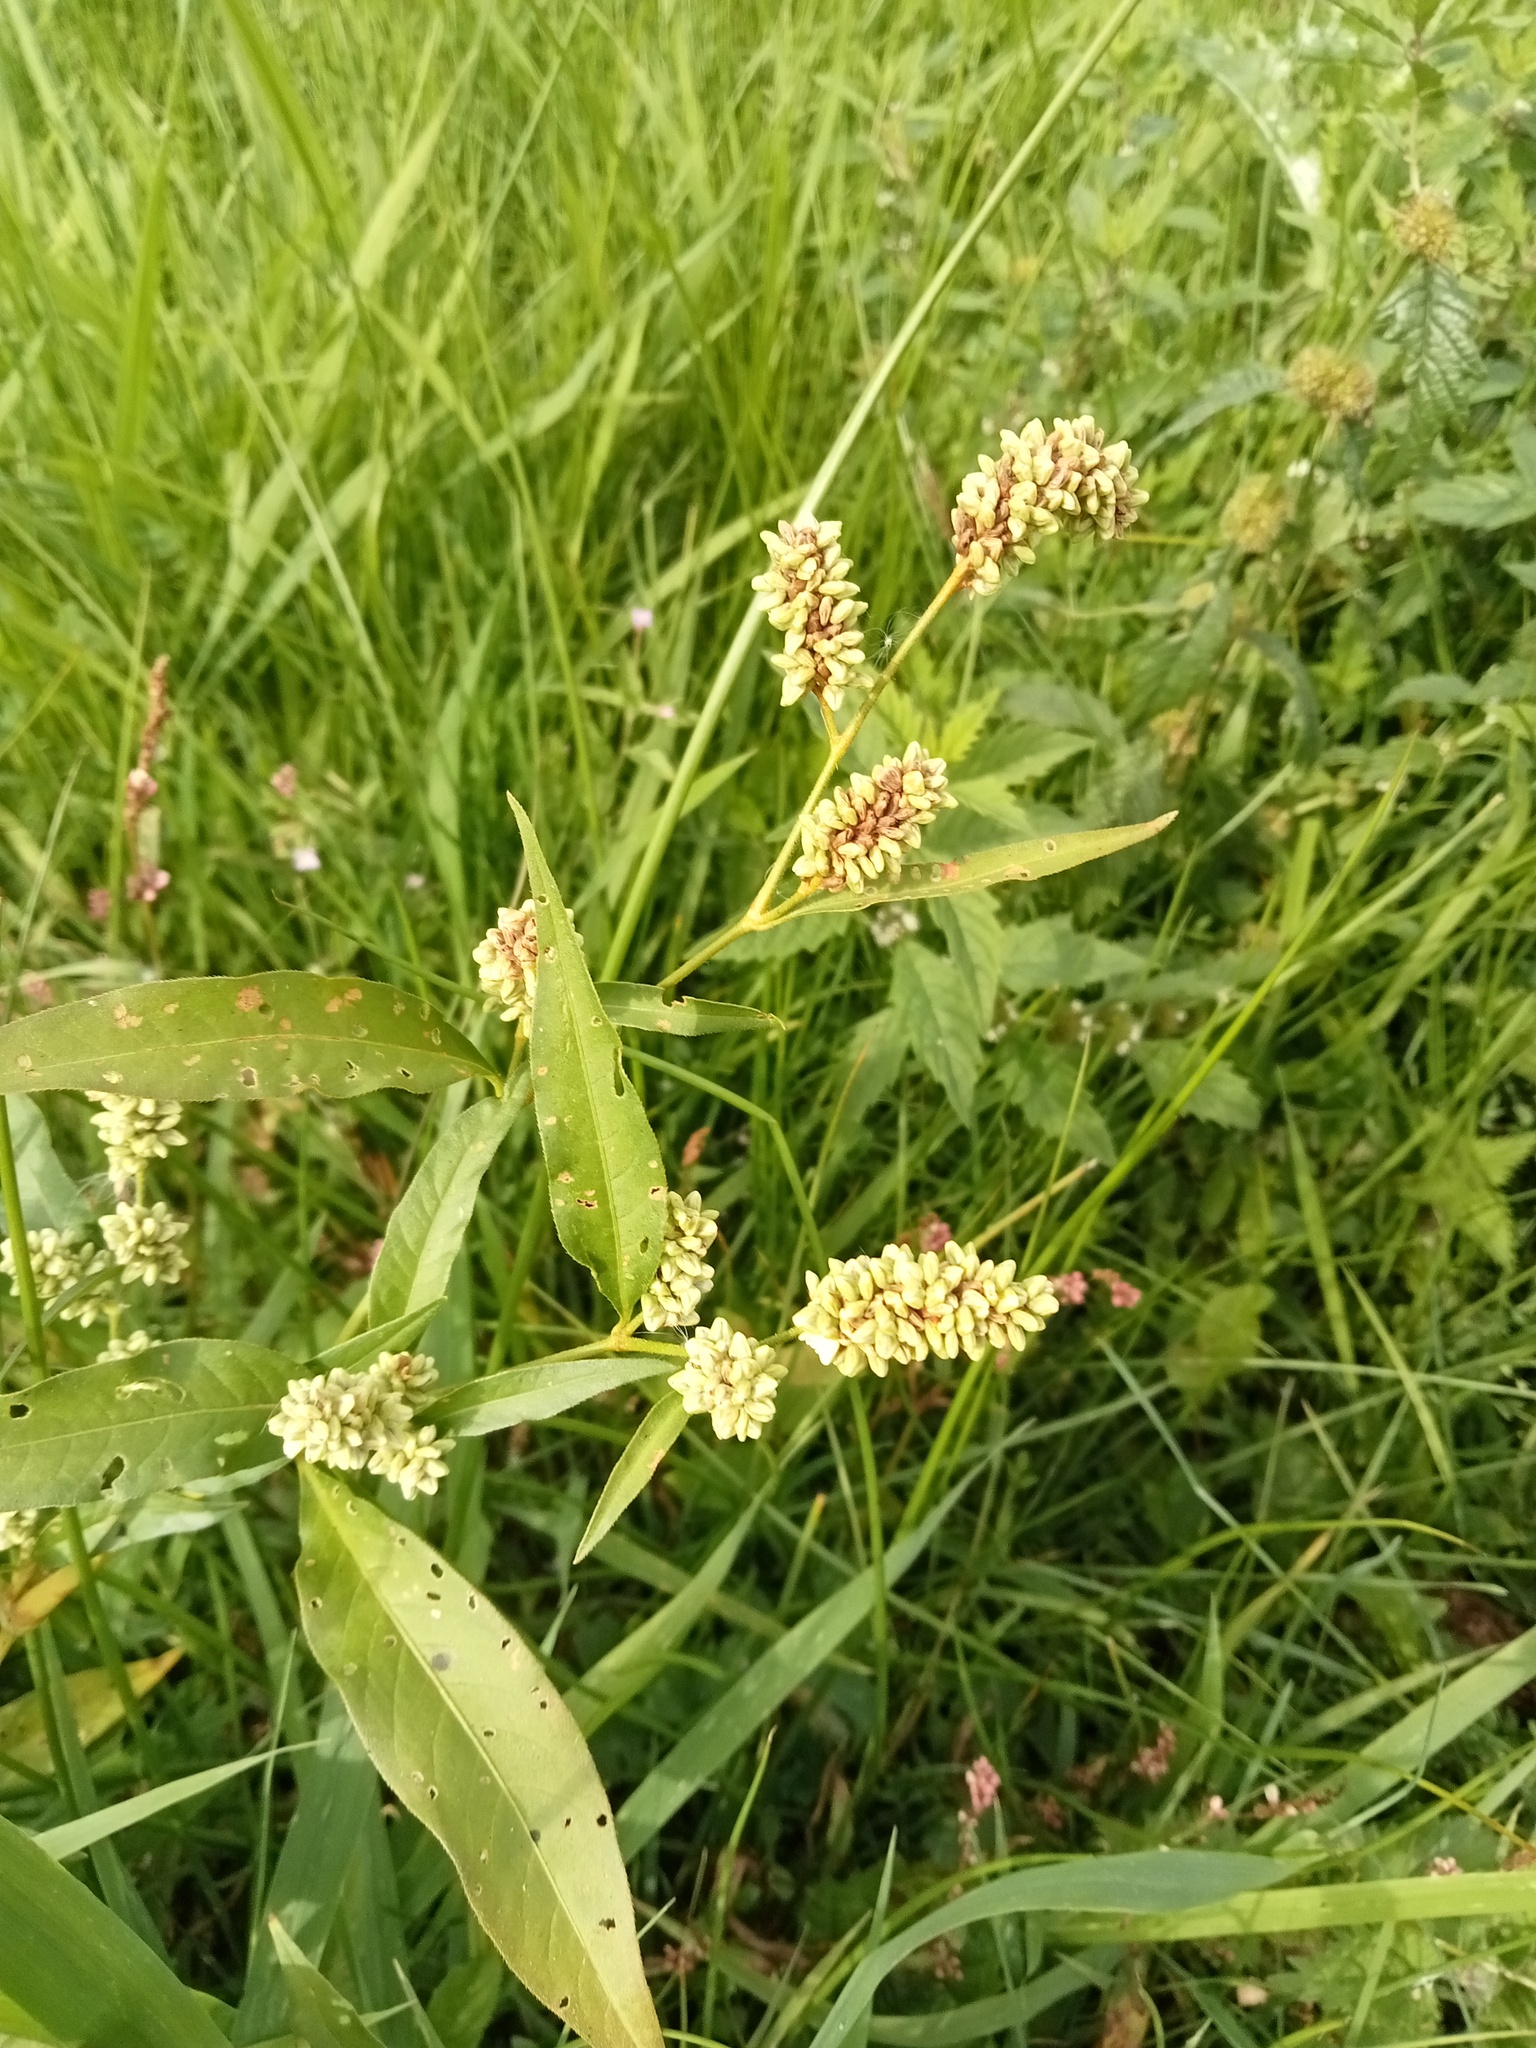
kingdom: Plantae
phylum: Tracheophyta
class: Magnoliopsida
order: Caryophyllales
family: Polygonaceae
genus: Persicaria
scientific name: Persicaria lapathifolia
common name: Curlytop knotweed
